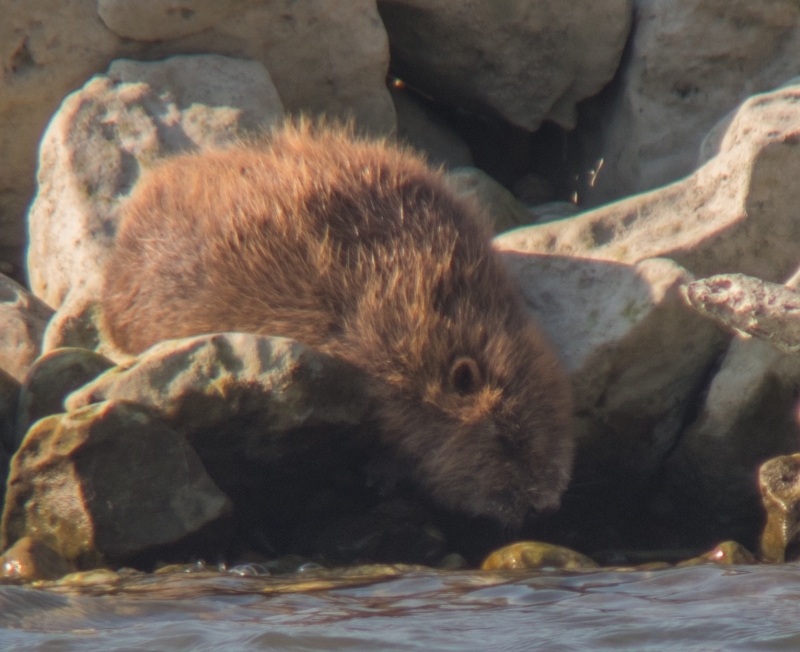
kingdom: Animalia
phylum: Chordata
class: Mammalia
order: Rodentia
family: Castoridae
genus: Castor
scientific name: Castor fiber
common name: Eurasian beaver
